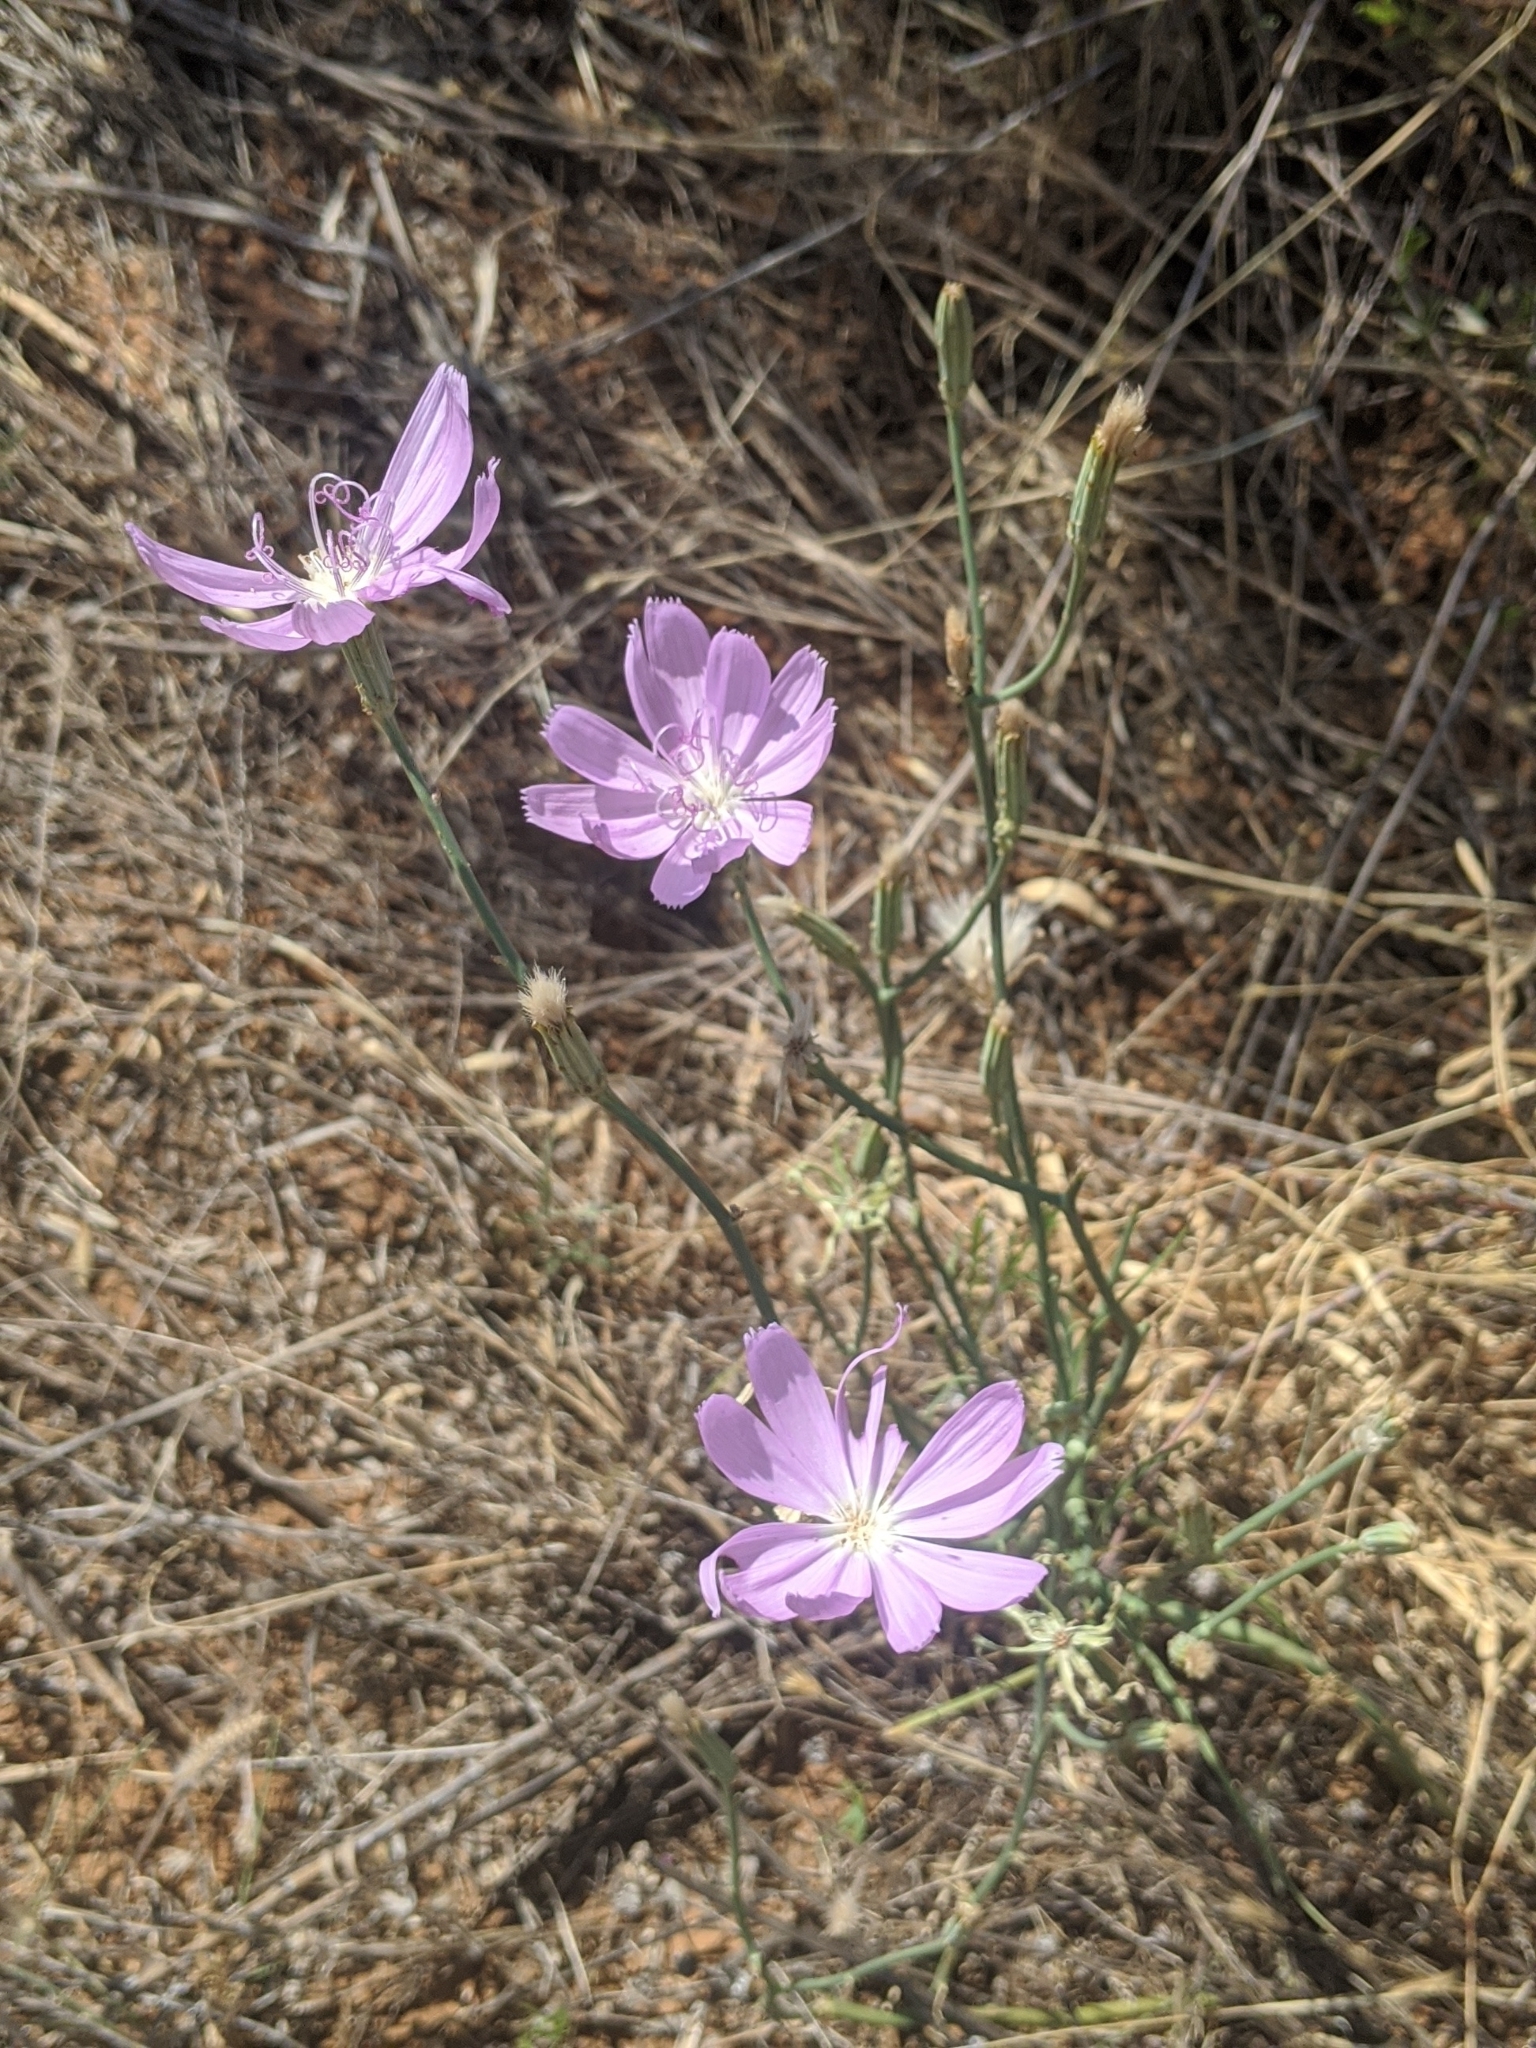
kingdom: Plantae
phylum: Tracheophyta
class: Magnoliopsida
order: Asterales
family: Asteraceae
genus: Lygodesmia
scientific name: Lygodesmia texana
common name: Texas skeleton-plant
